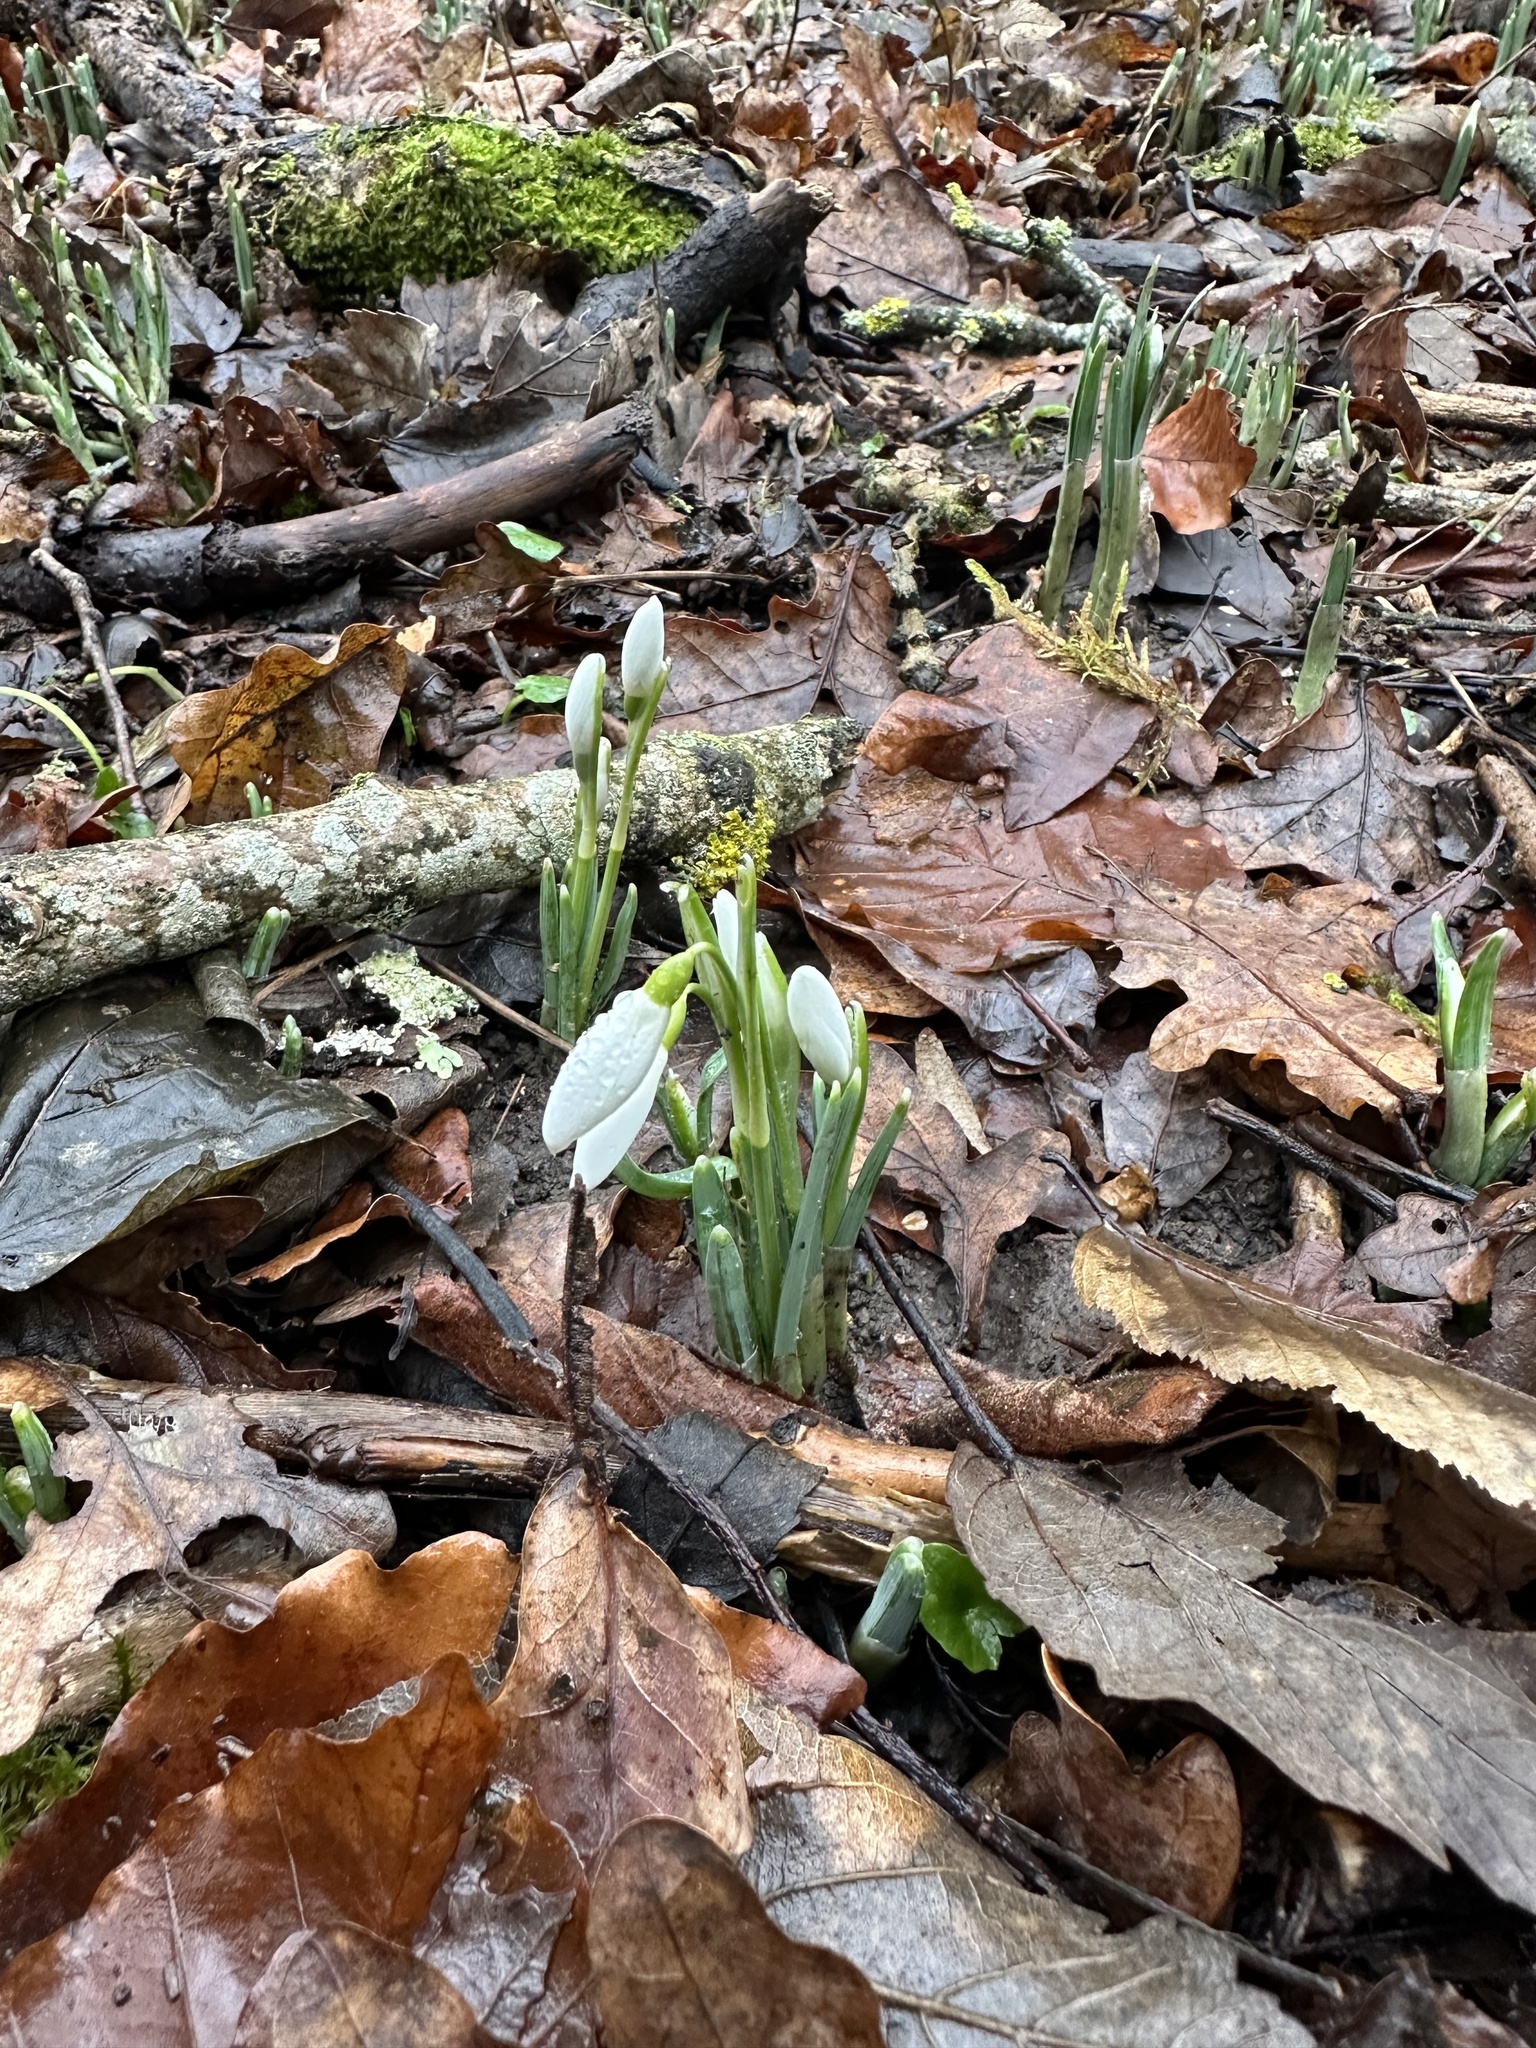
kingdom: Plantae
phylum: Tracheophyta
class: Liliopsida
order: Asparagales
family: Amaryllidaceae
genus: Galanthus
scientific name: Galanthus nivalis
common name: Snowdrop
